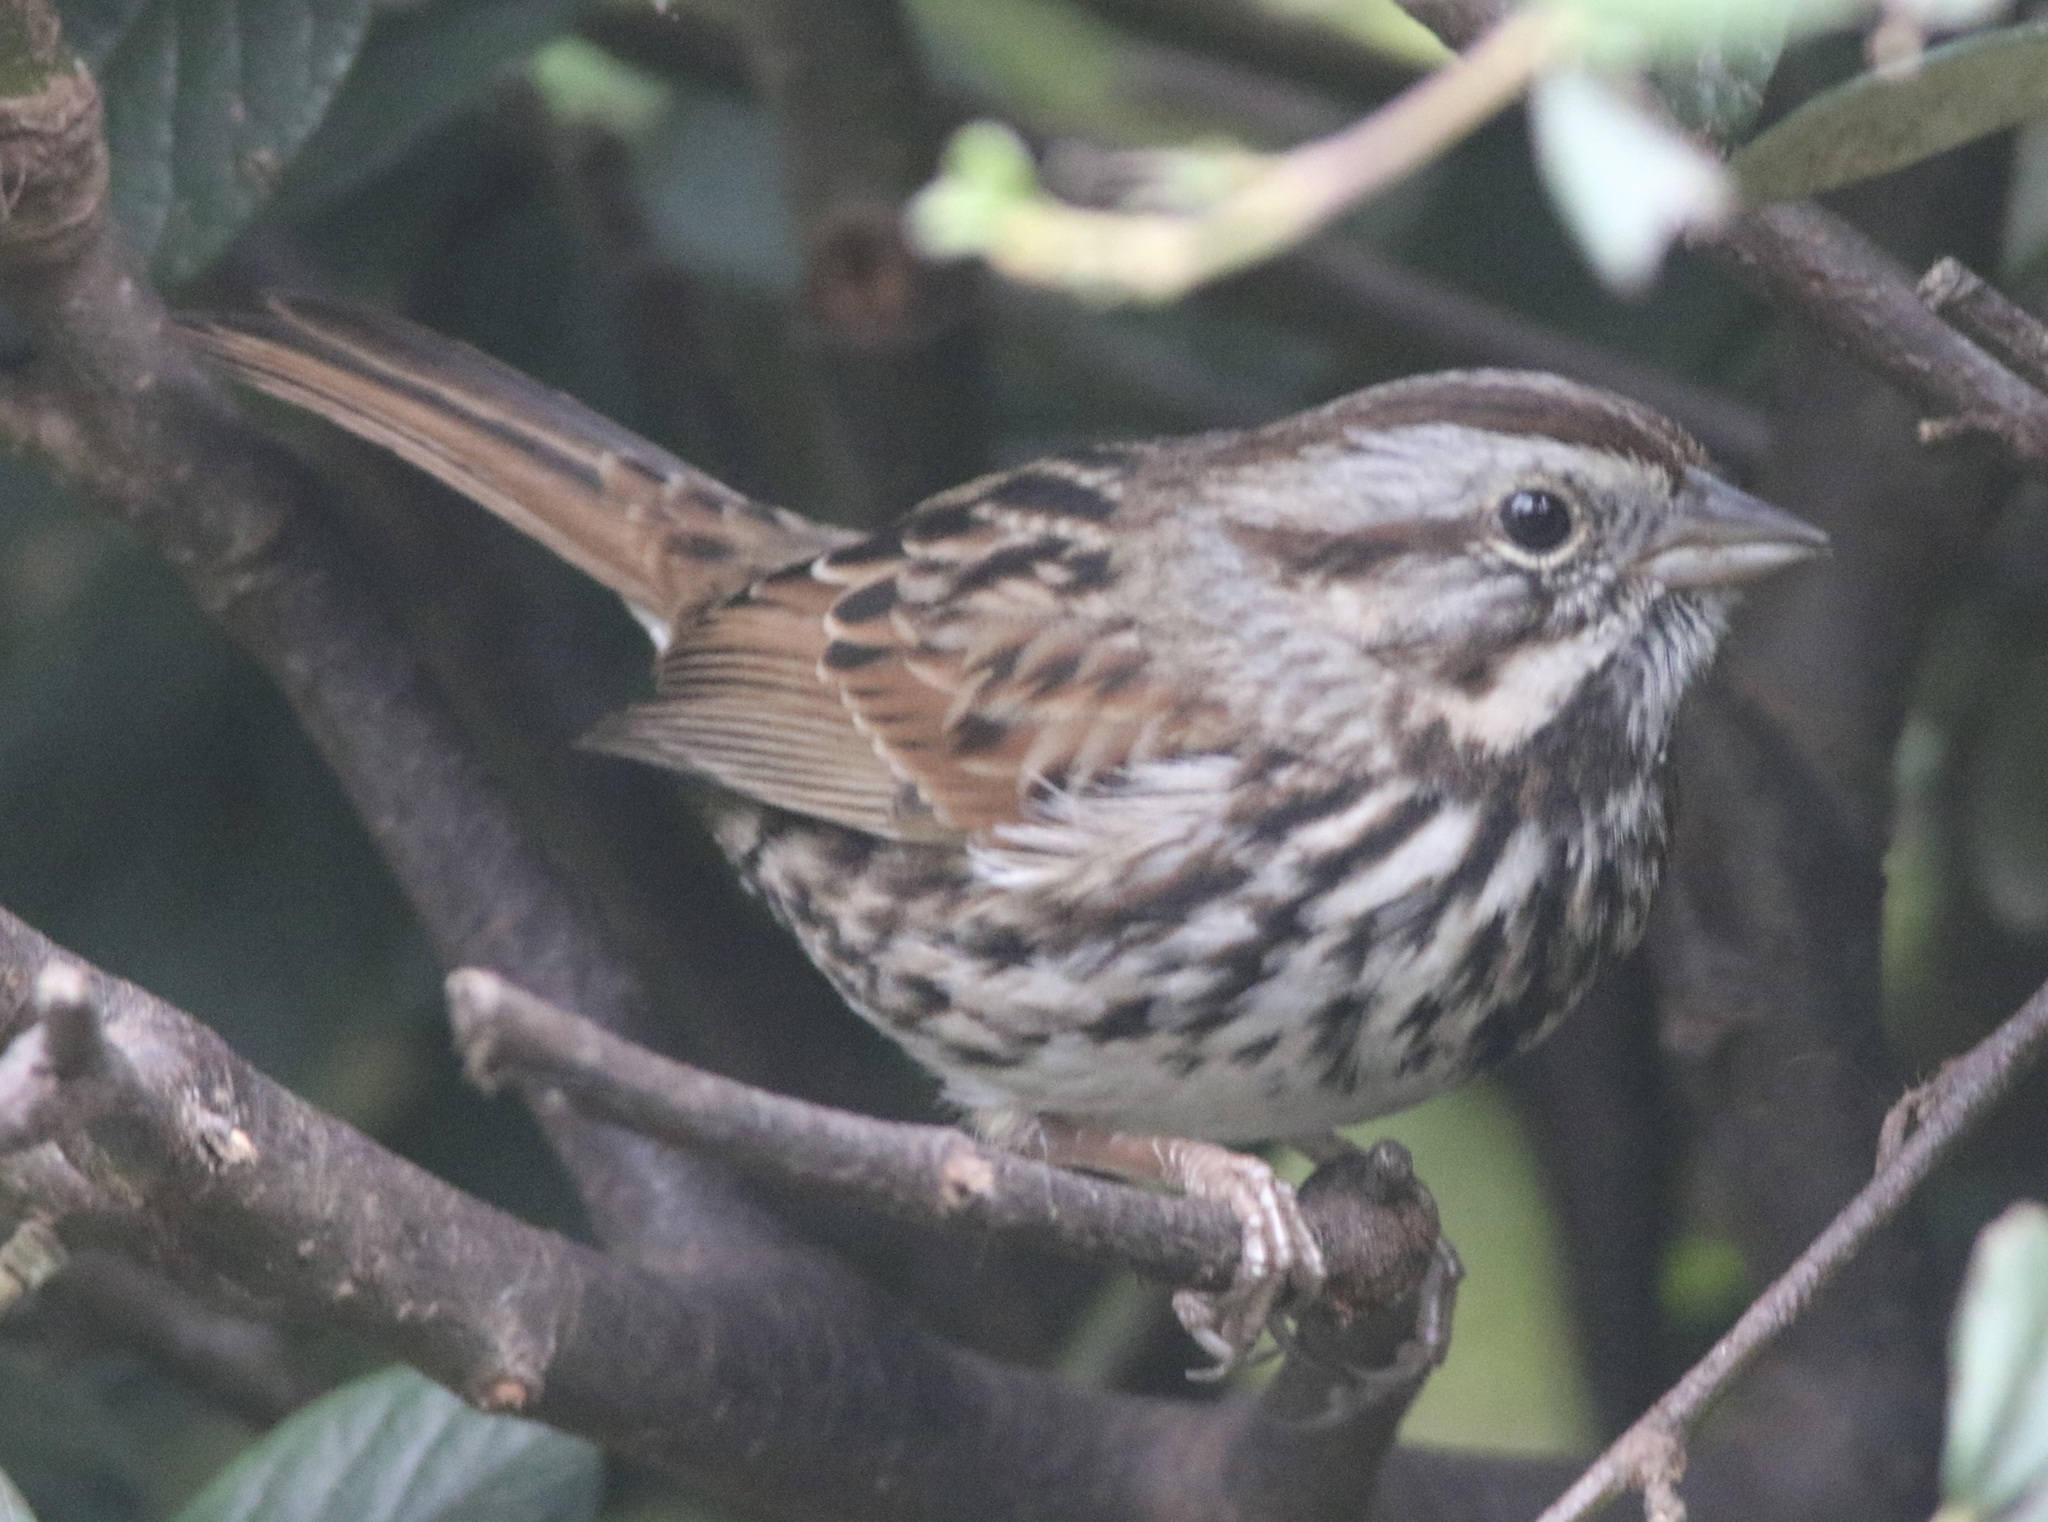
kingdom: Animalia
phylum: Chordata
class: Aves
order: Passeriformes
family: Passerellidae
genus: Melospiza
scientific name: Melospiza melodia
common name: Song sparrow
